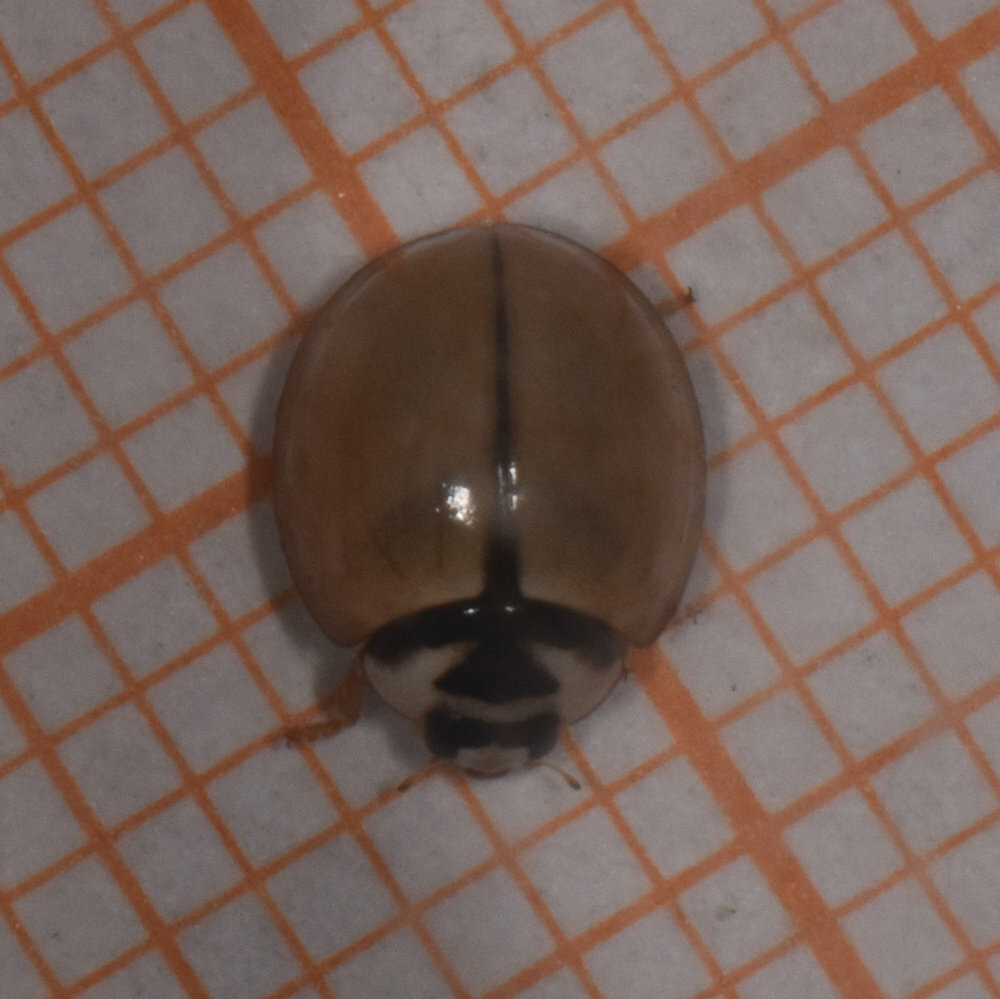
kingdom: Animalia
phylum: Arthropoda
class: Insecta
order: Coleoptera
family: Coccinellidae
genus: Cheilomenes
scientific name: Cheilomenes propinqua
